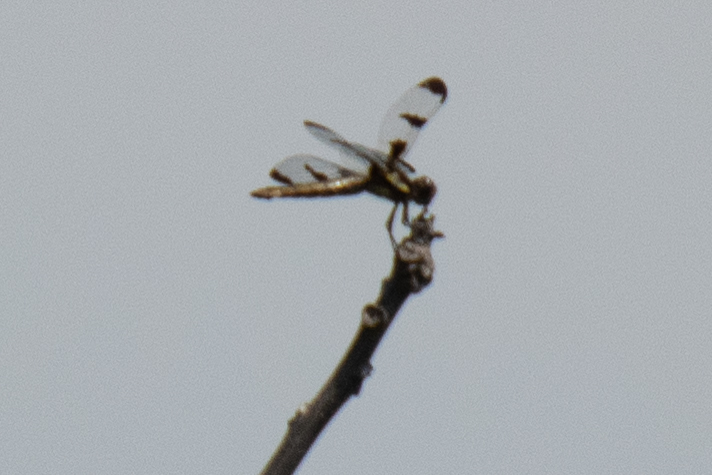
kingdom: Animalia
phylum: Arthropoda
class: Insecta
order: Odonata
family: Libellulidae
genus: Libellula
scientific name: Libellula pulchella
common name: Twelve-spotted skimmer
